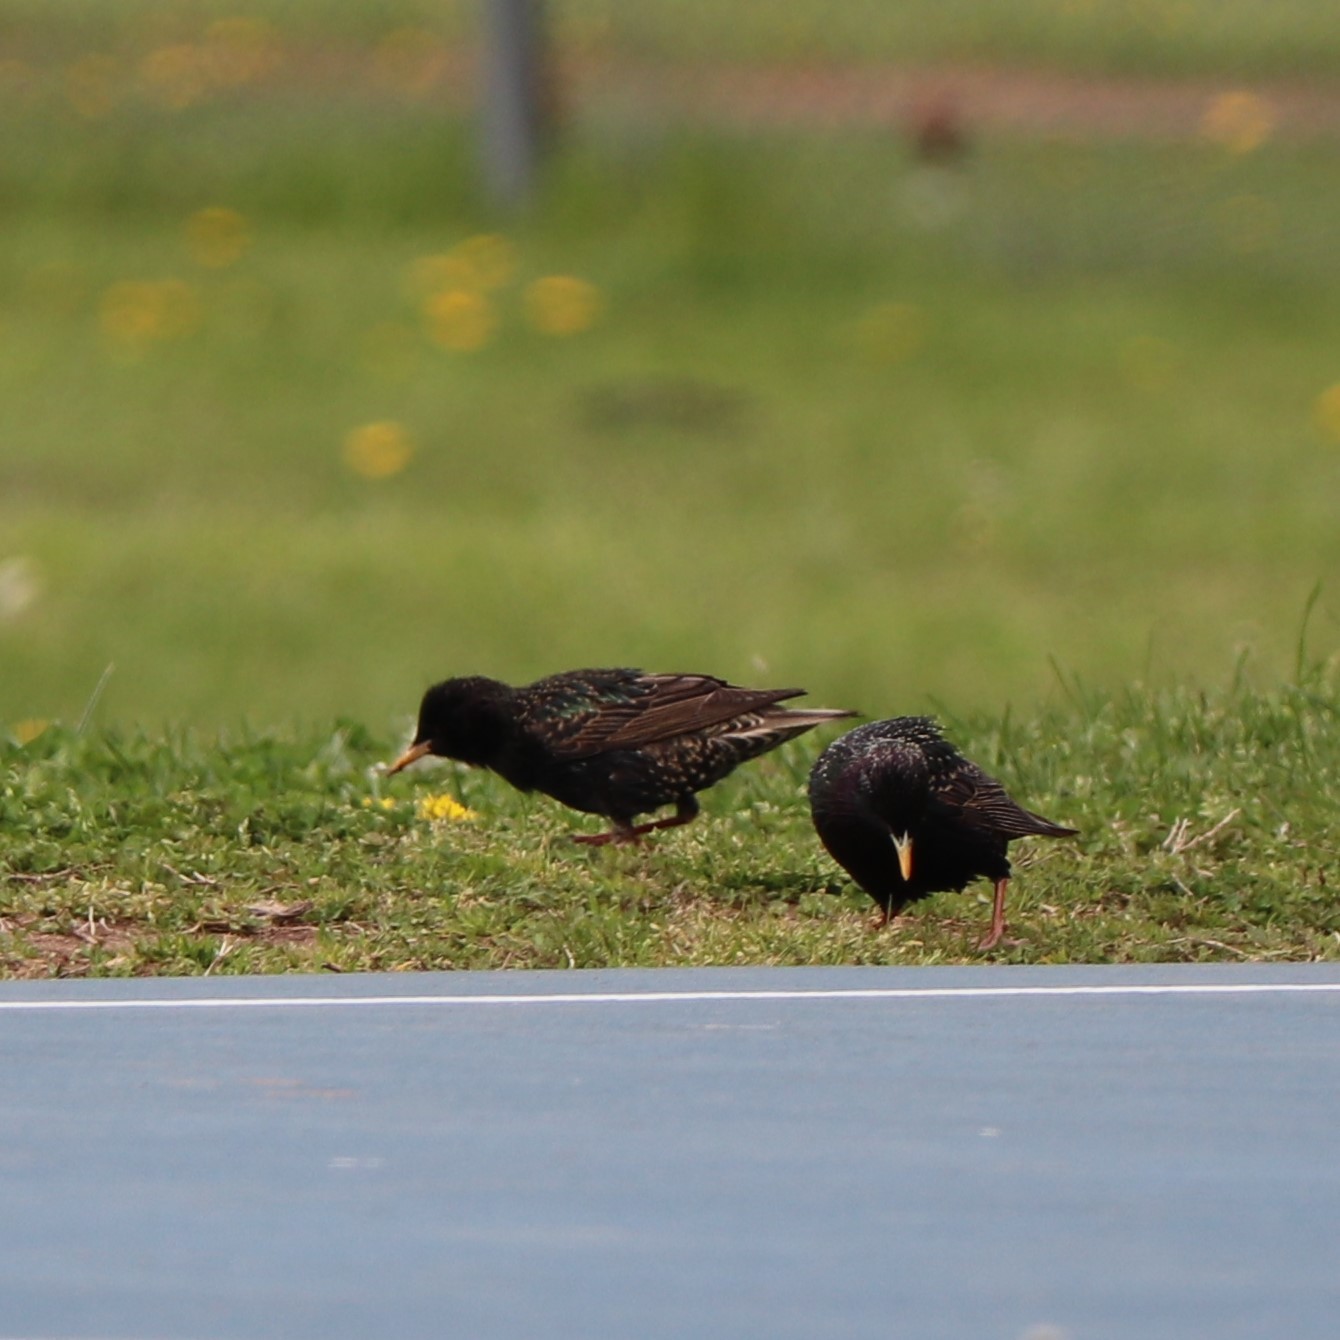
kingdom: Animalia
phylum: Chordata
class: Aves
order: Passeriformes
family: Sturnidae
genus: Sturnus
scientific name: Sturnus vulgaris
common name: Common starling
